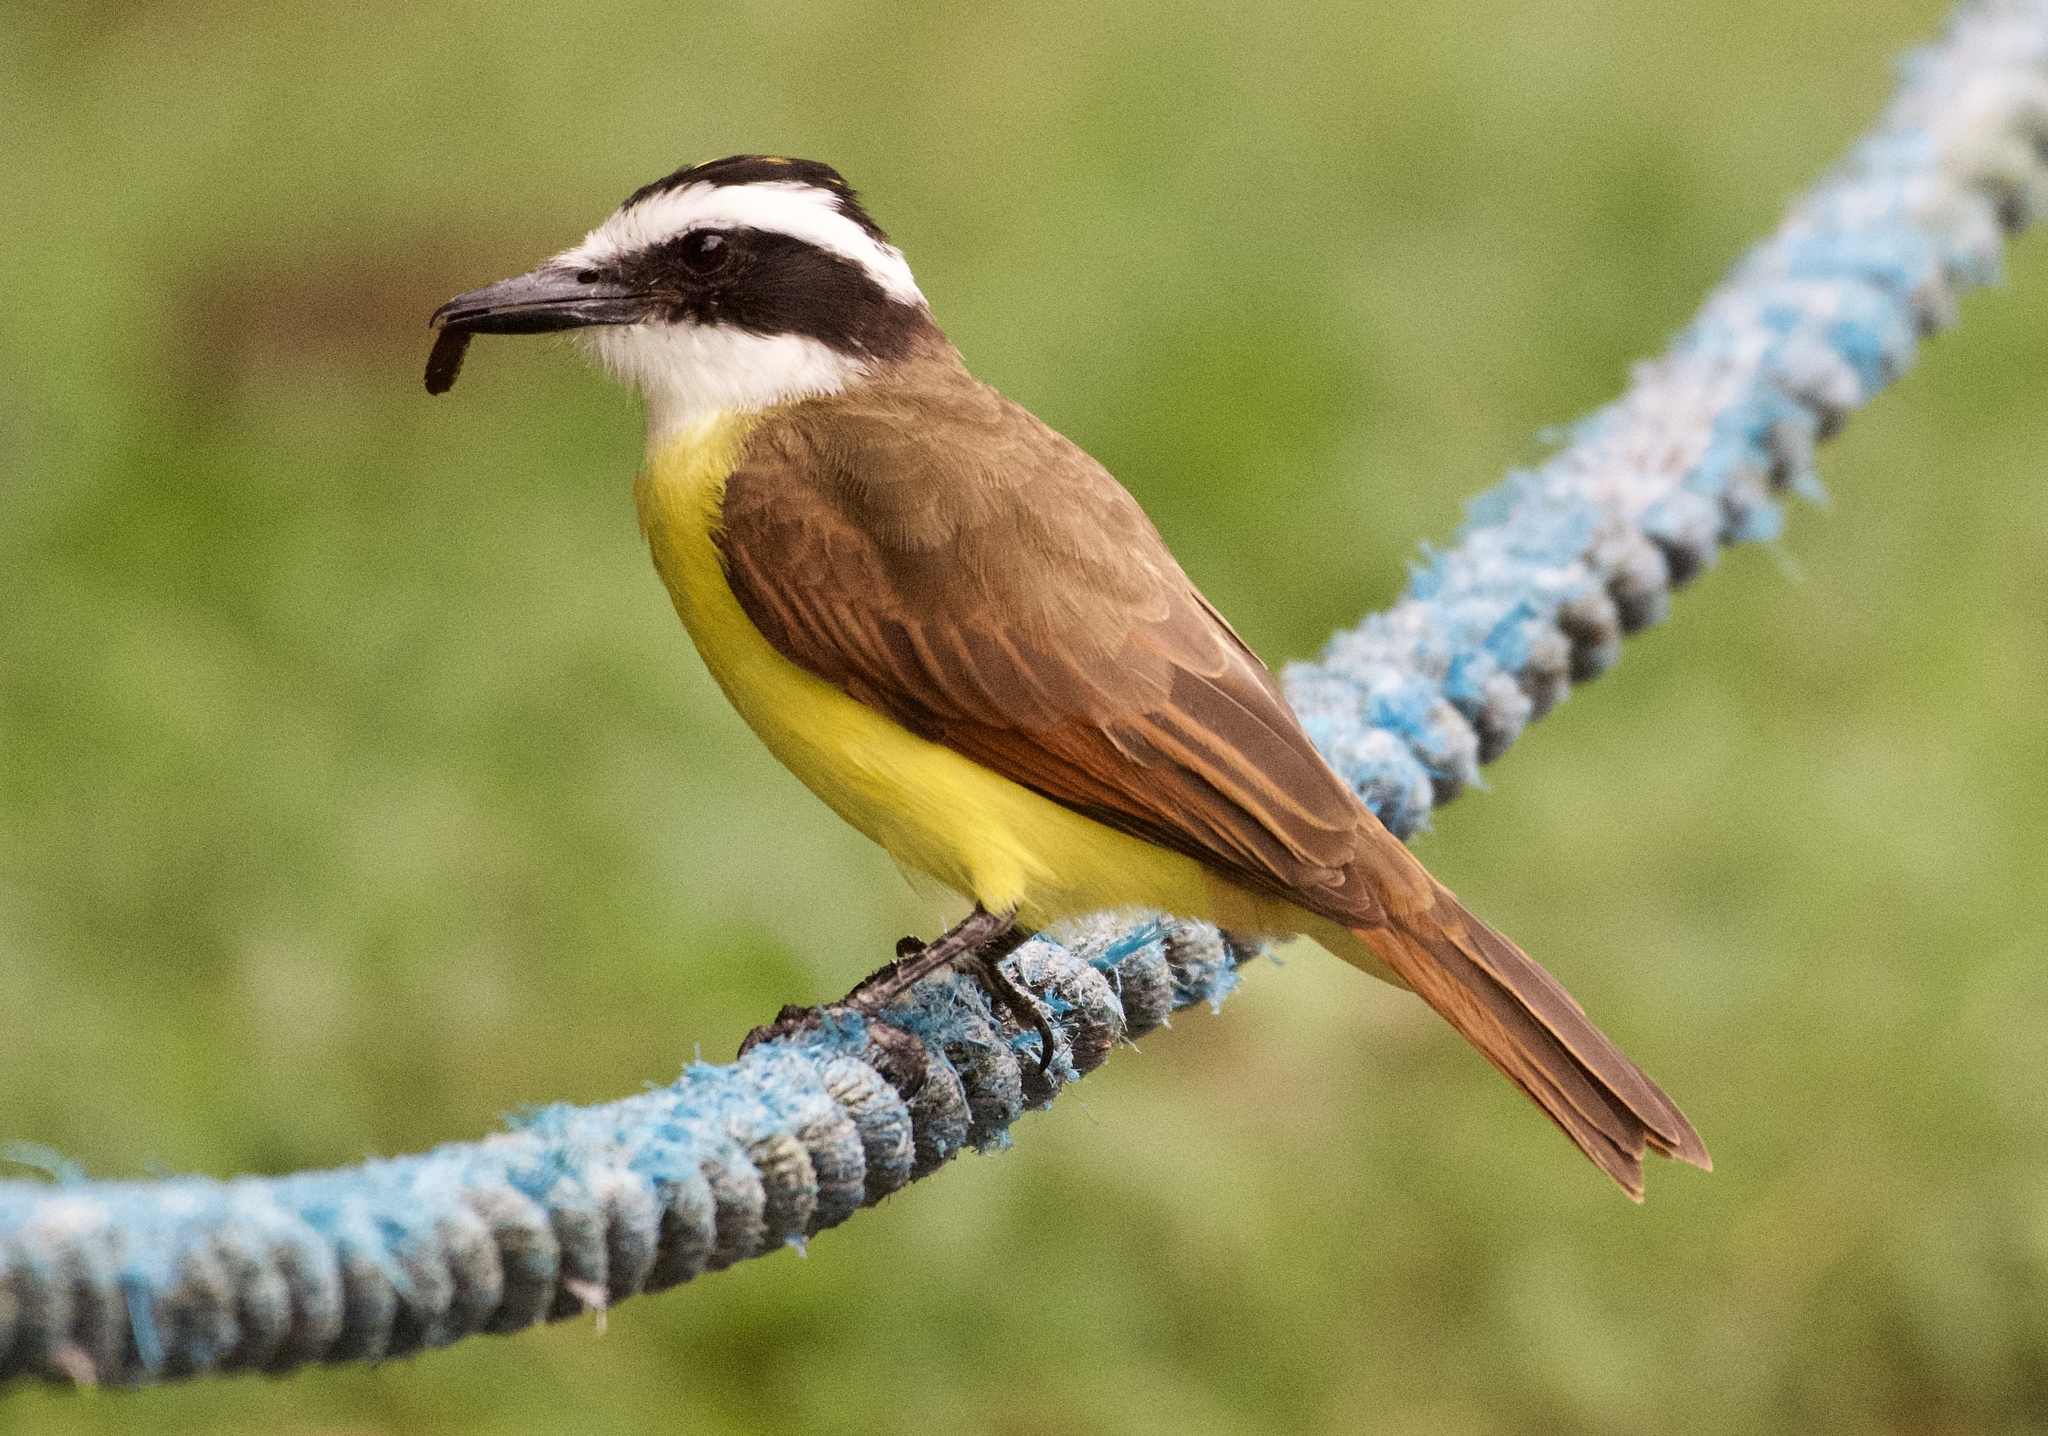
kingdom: Animalia
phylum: Chordata
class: Aves
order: Passeriformes
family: Tyrannidae
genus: Pitangus
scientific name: Pitangus sulphuratus
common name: Great kiskadee
